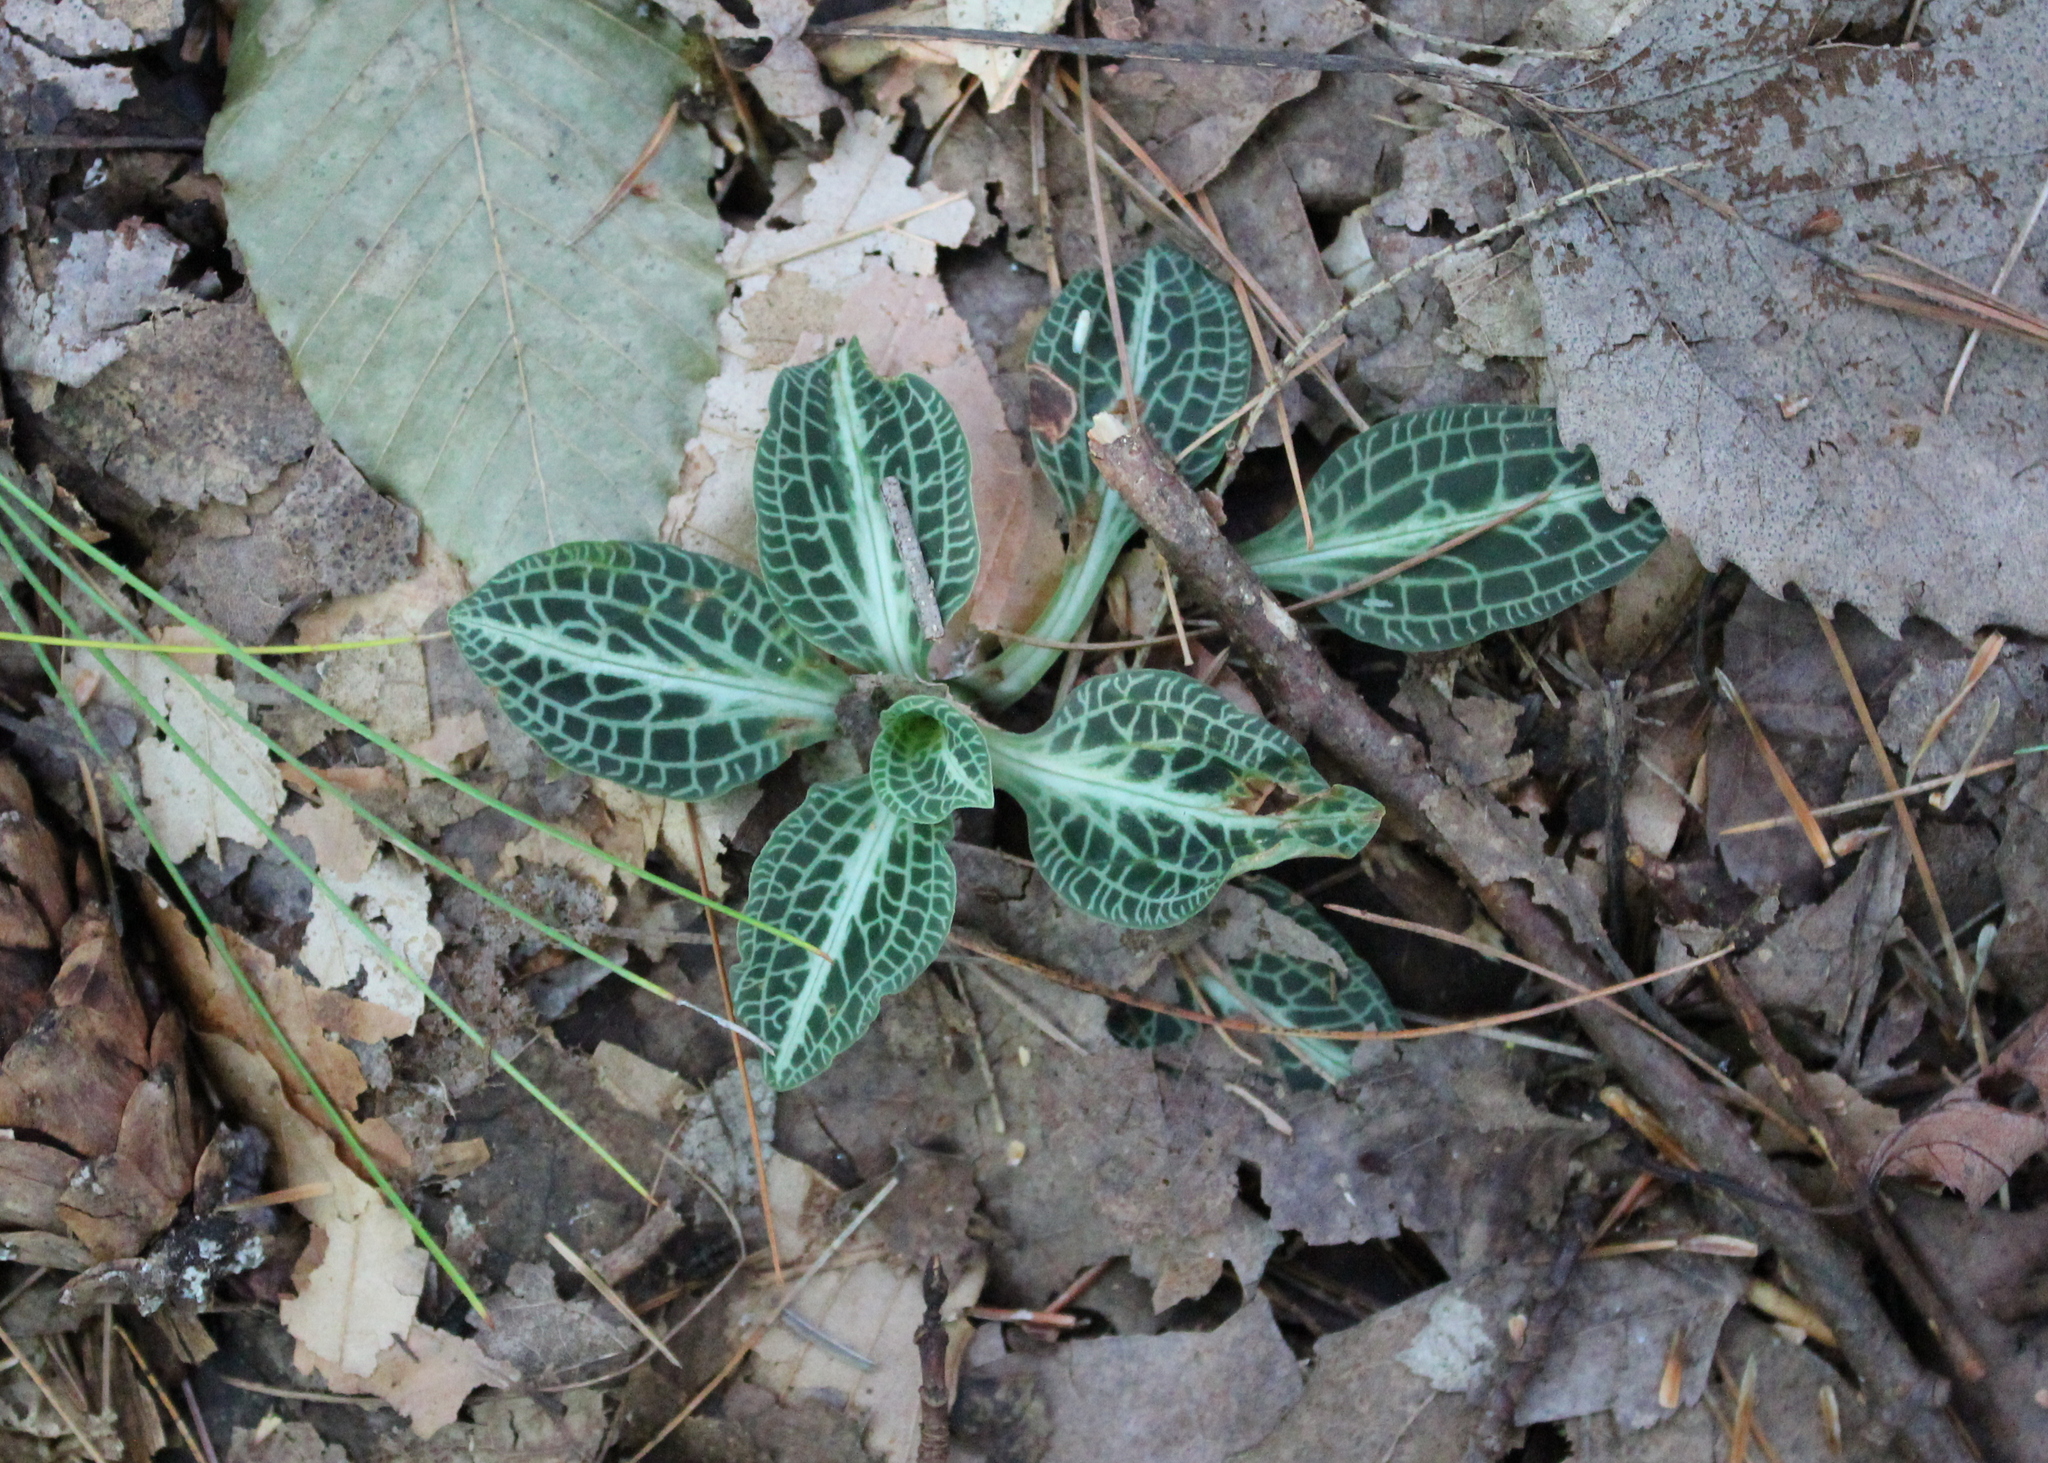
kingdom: Plantae
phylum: Tracheophyta
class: Liliopsida
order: Asparagales
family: Orchidaceae
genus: Goodyera
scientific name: Goodyera pubescens
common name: Downy rattlesnake-plantain
